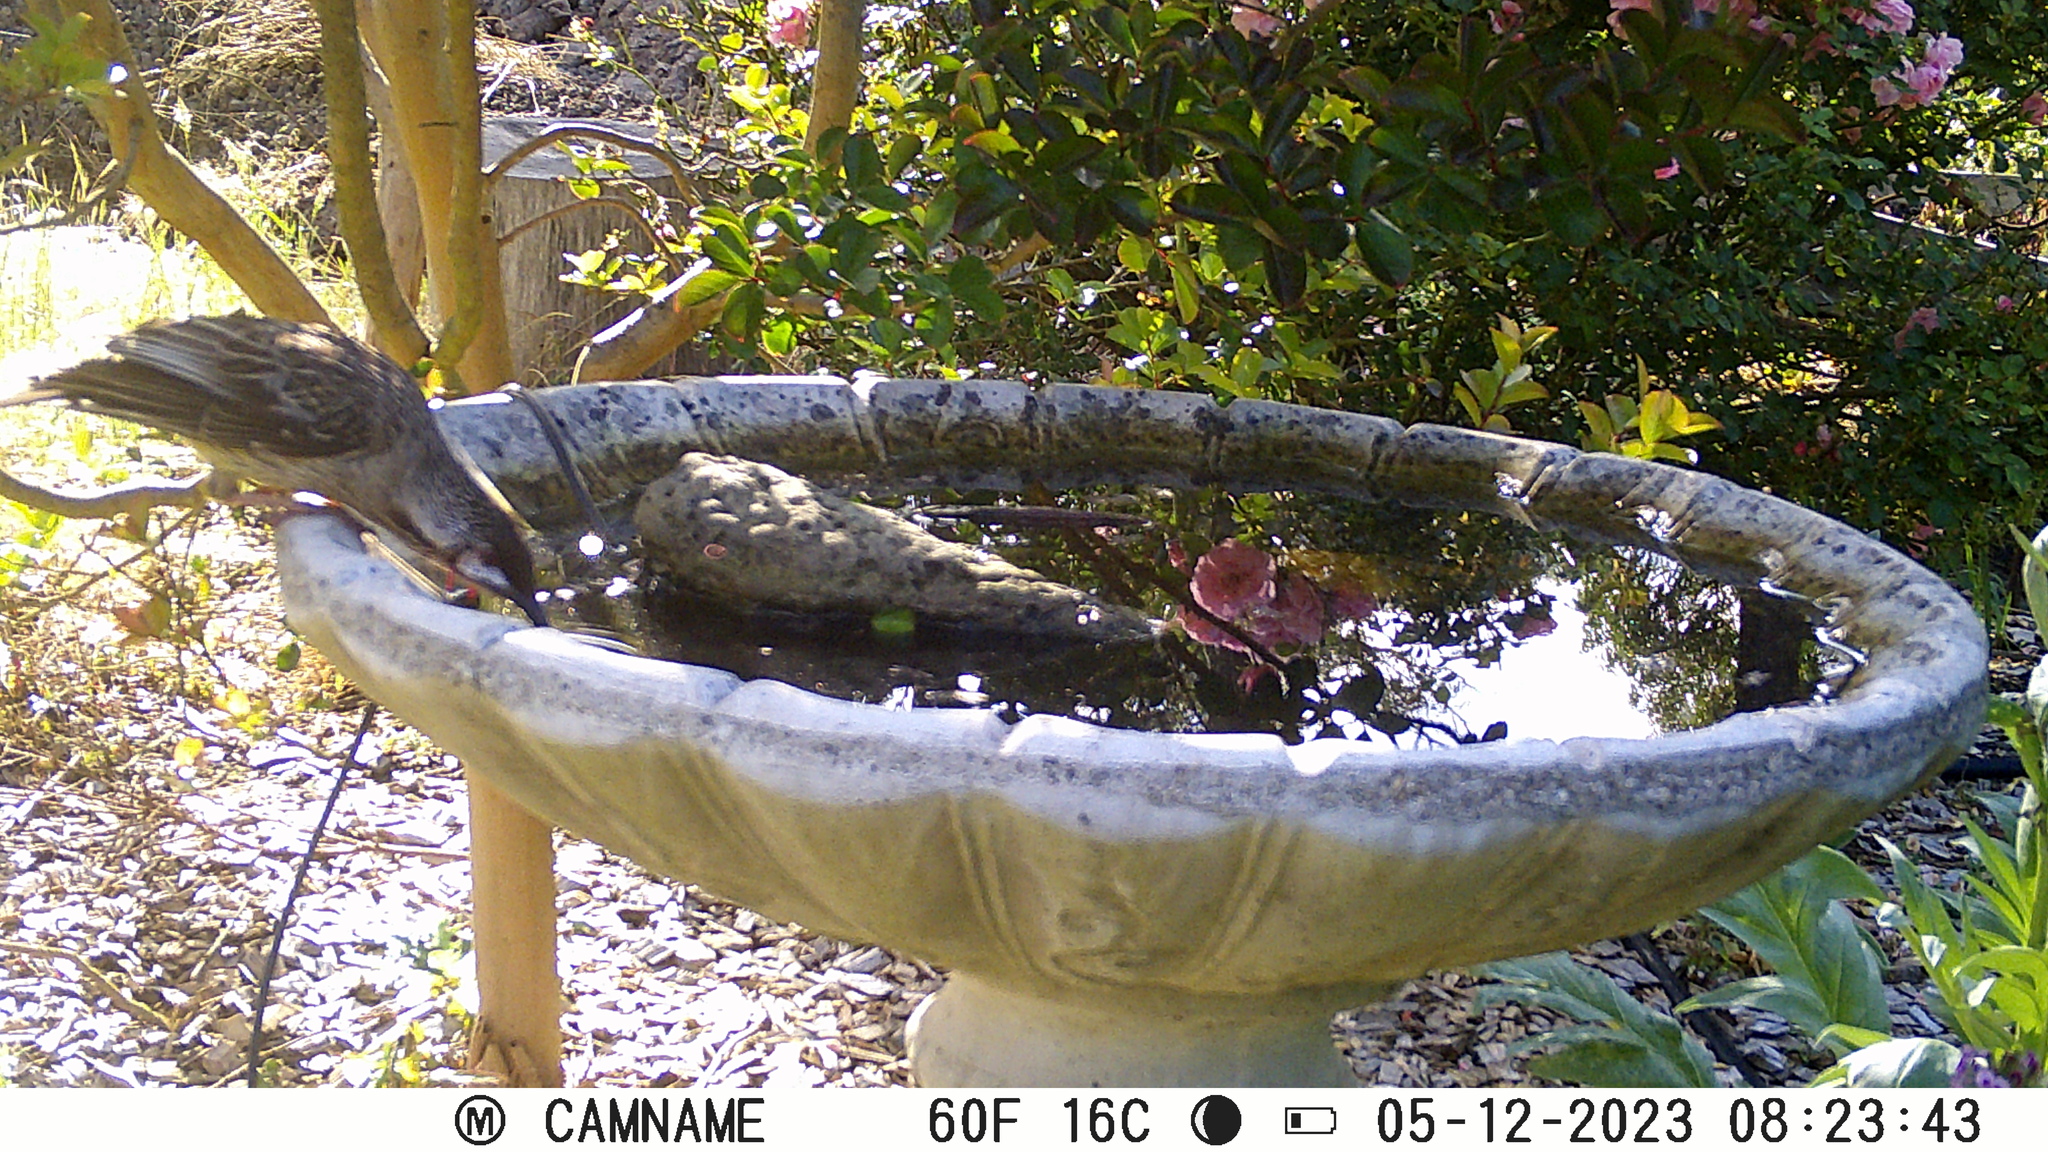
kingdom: Animalia
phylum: Chordata
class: Aves
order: Passeriformes
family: Meliphagidae
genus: Anthochaera
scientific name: Anthochaera carunculata
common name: Red wattlebird
